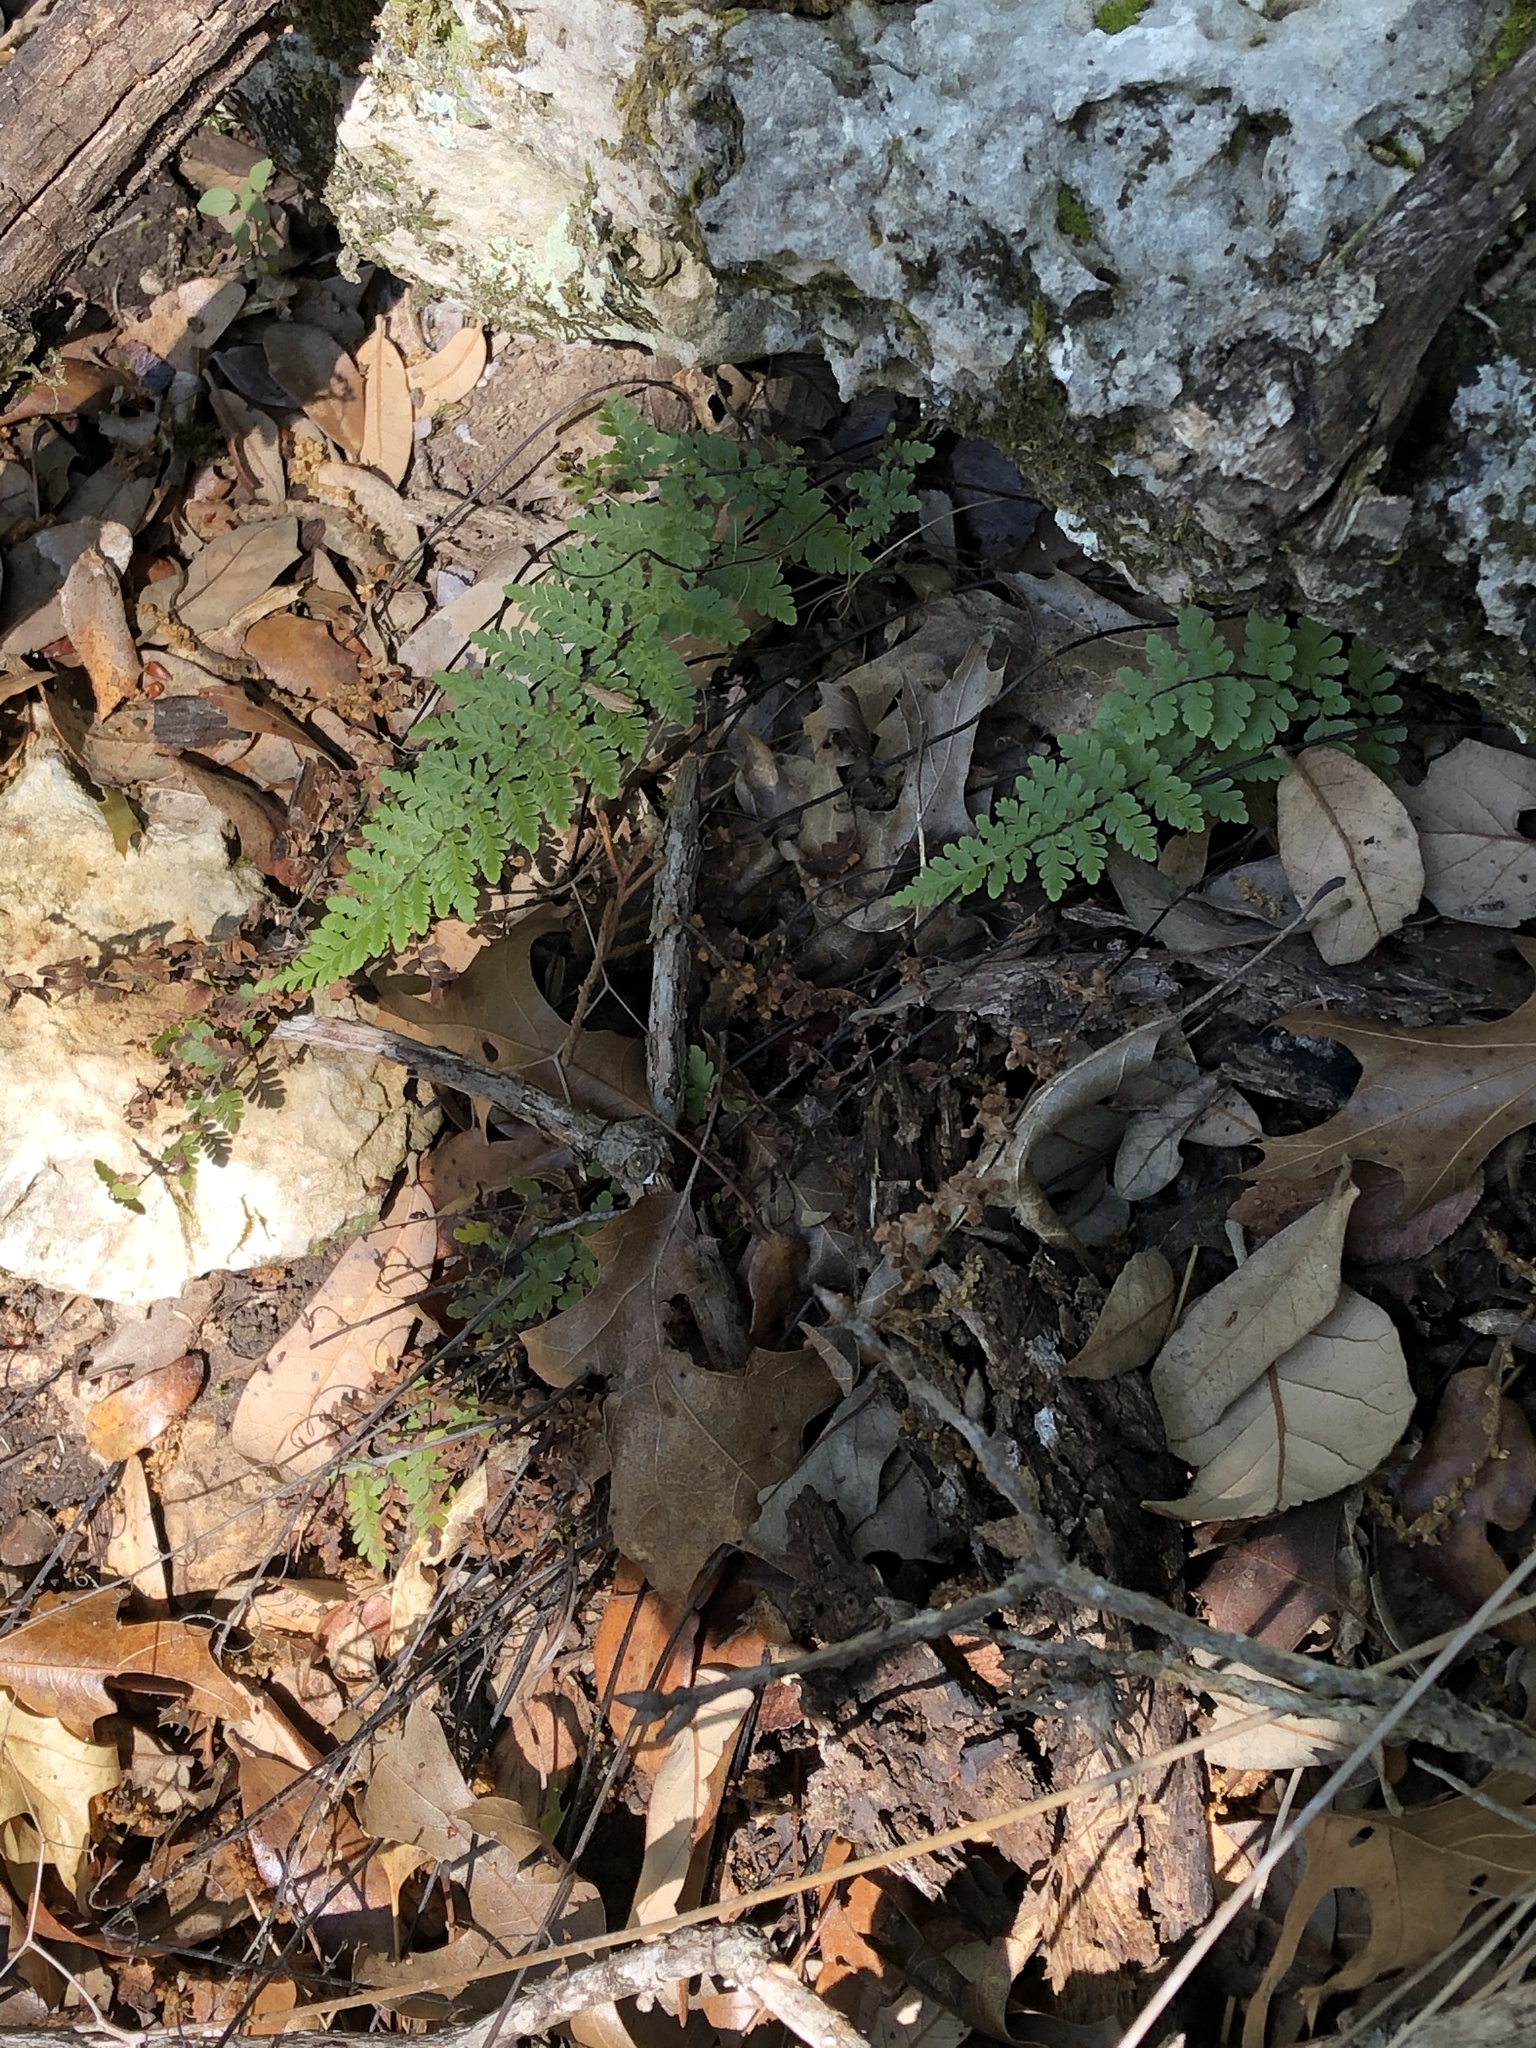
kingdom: Plantae
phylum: Tracheophyta
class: Polypodiopsida
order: Polypodiales
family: Pteridaceae
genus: Myriopteris
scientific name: Myriopteris alabamensis
